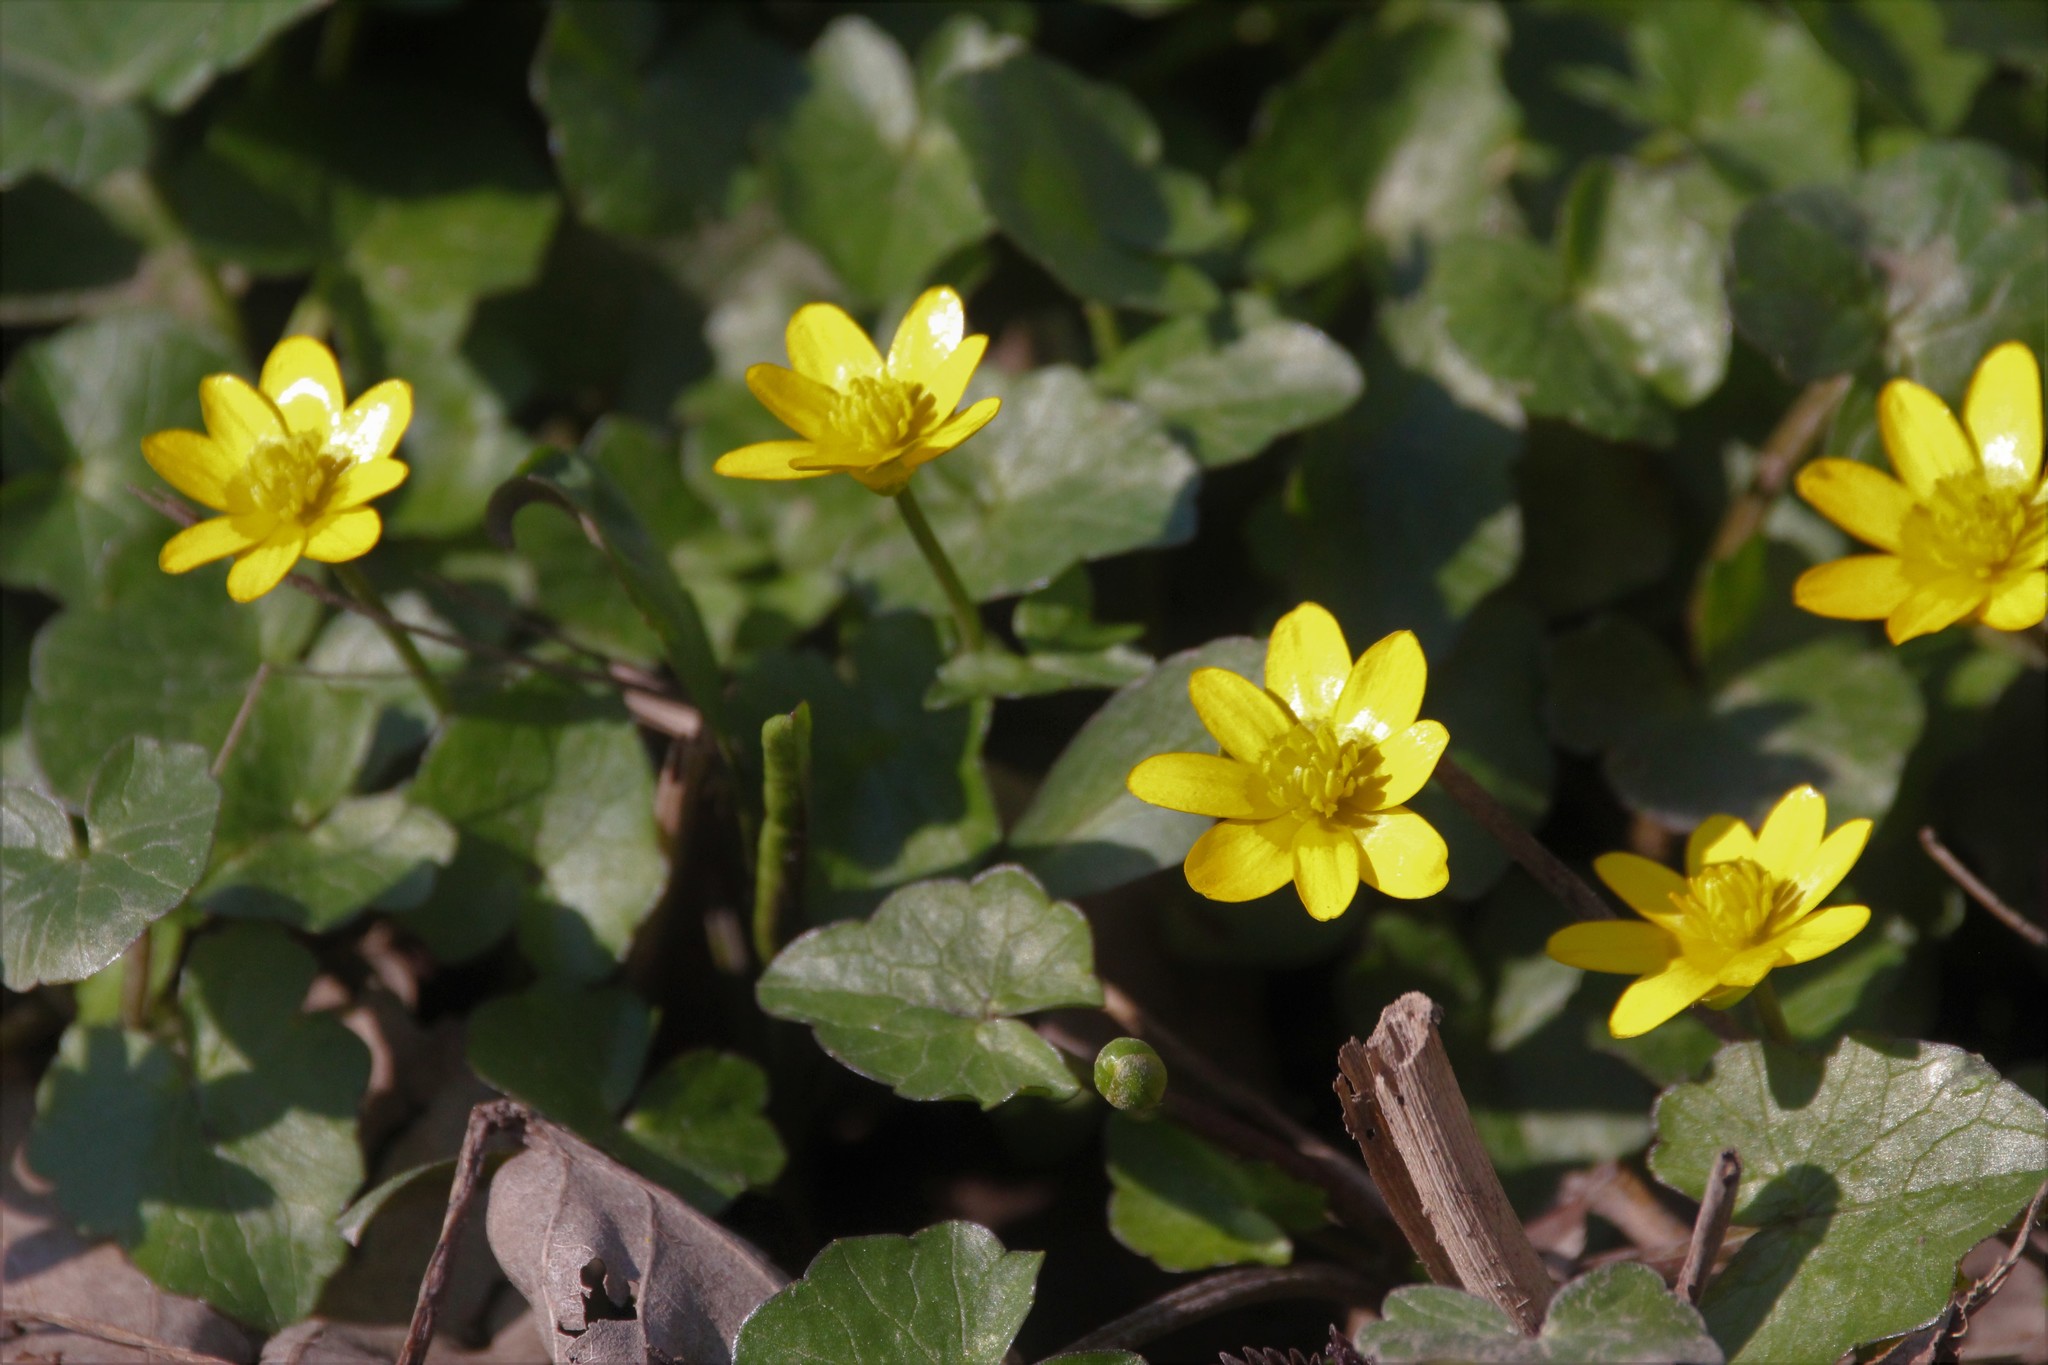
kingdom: Plantae
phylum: Tracheophyta
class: Magnoliopsida
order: Ranunculales
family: Ranunculaceae
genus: Ficaria
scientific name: Ficaria verna
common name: Lesser celandine
